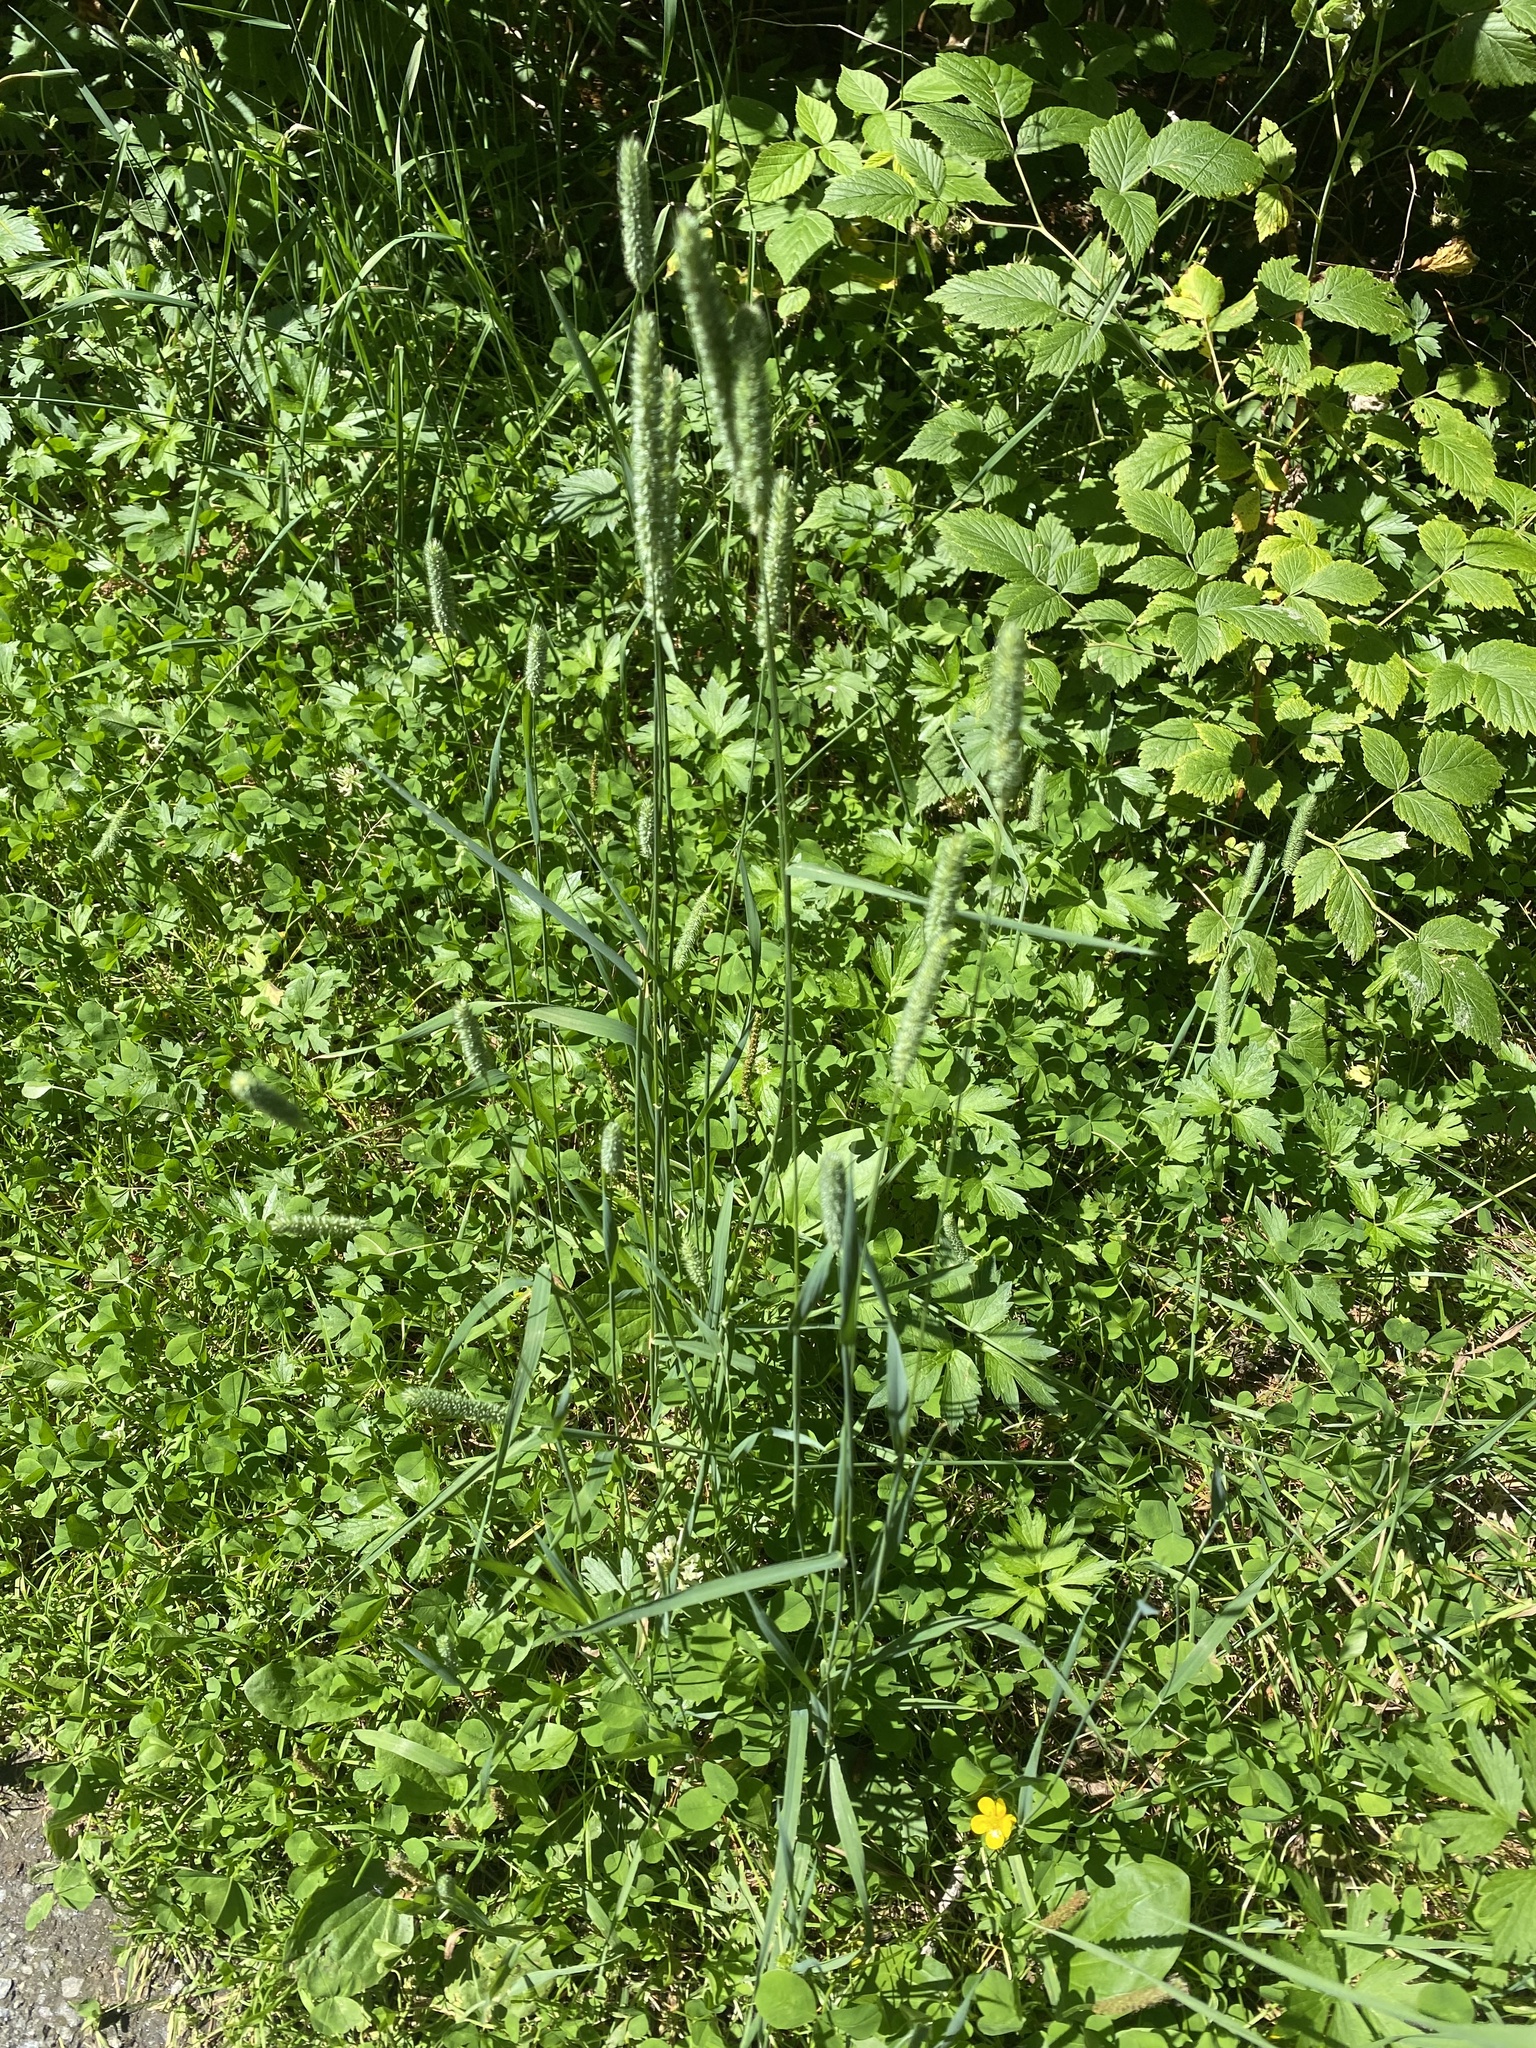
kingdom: Plantae
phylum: Tracheophyta
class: Liliopsida
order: Poales
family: Poaceae
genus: Phleum
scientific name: Phleum pratense
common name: Timothy grass
